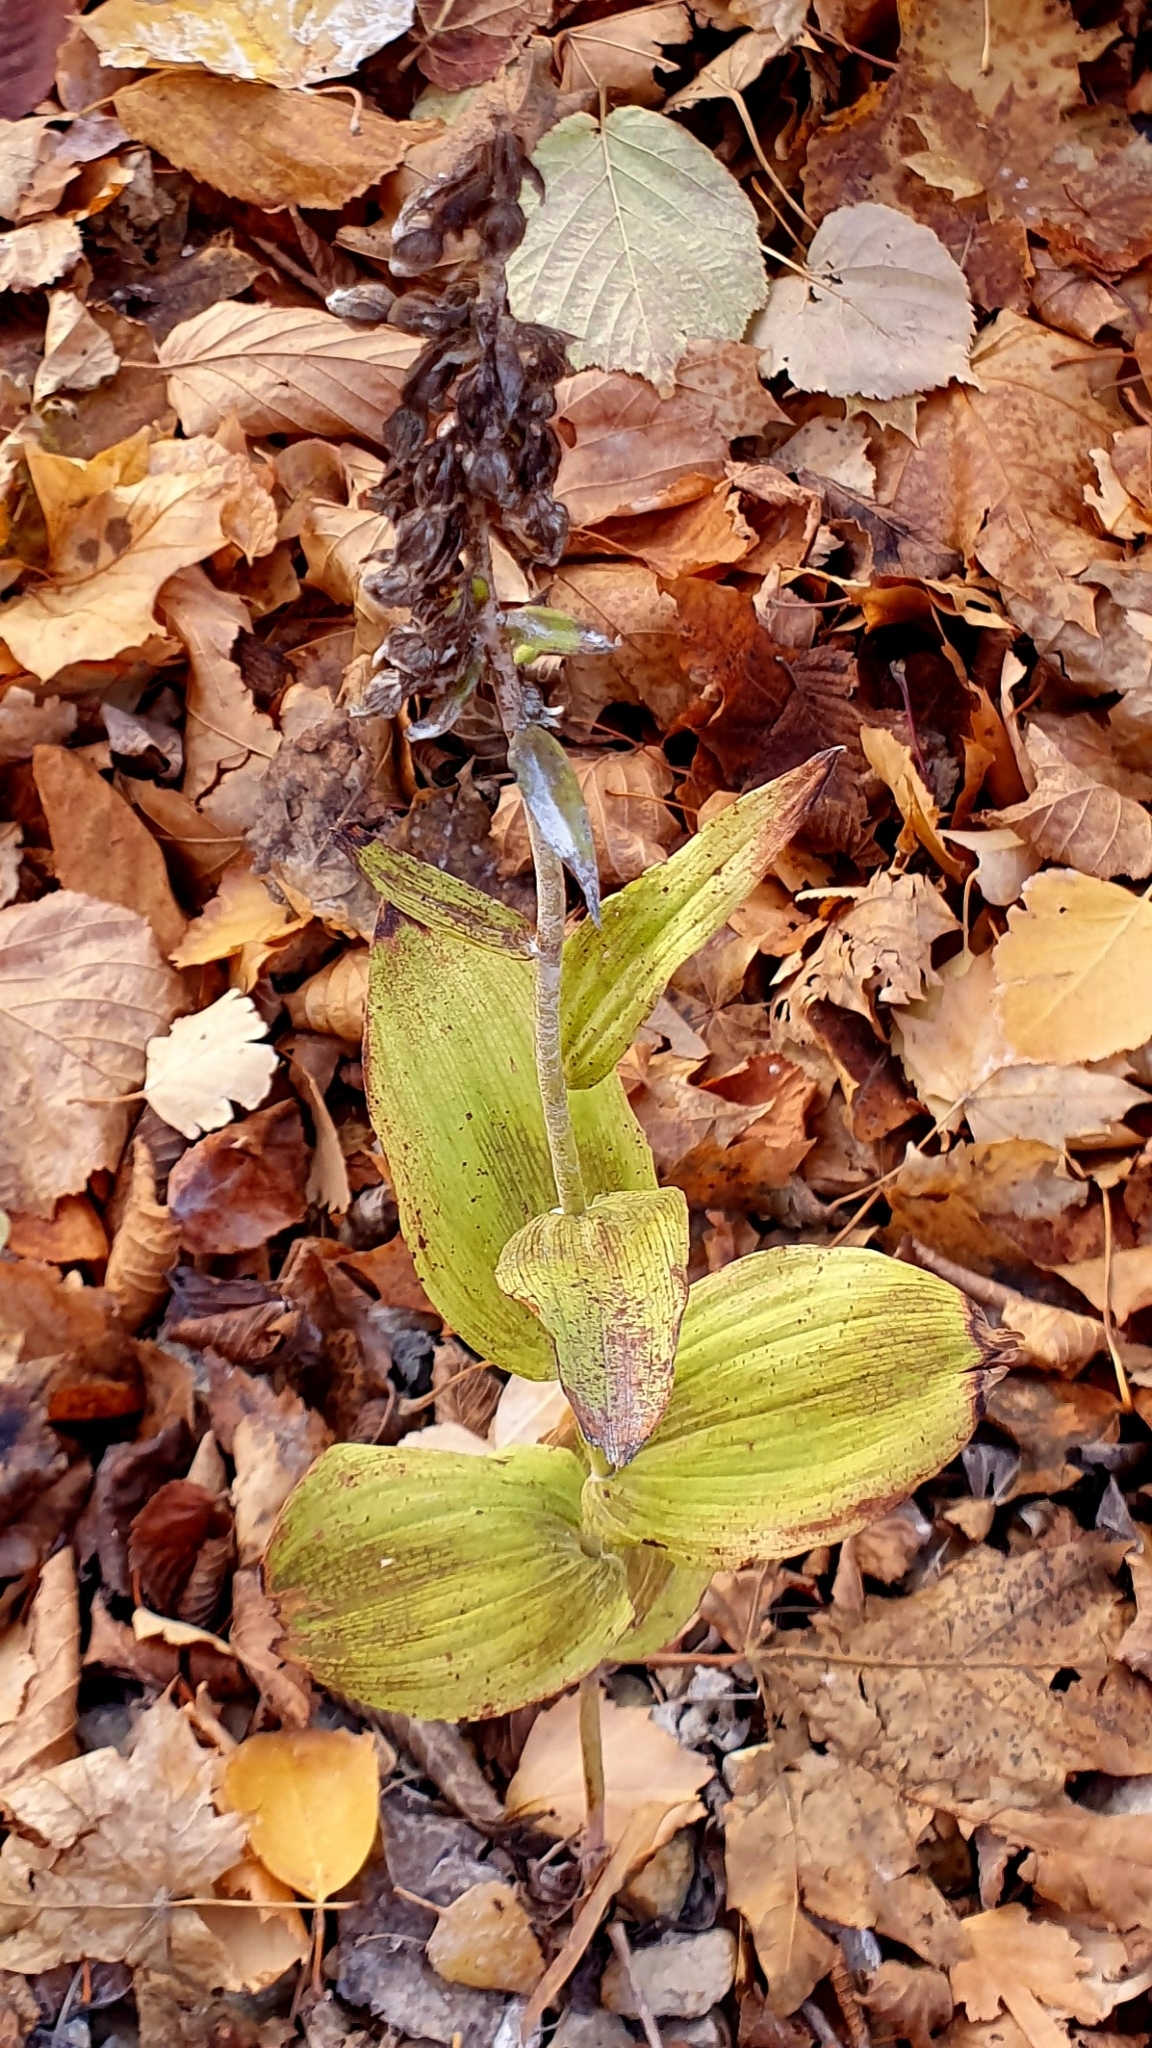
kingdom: Plantae
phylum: Tracheophyta
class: Liliopsida
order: Asparagales
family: Orchidaceae
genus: Epipactis
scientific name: Epipactis helleborine
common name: Broad-leaved helleborine
